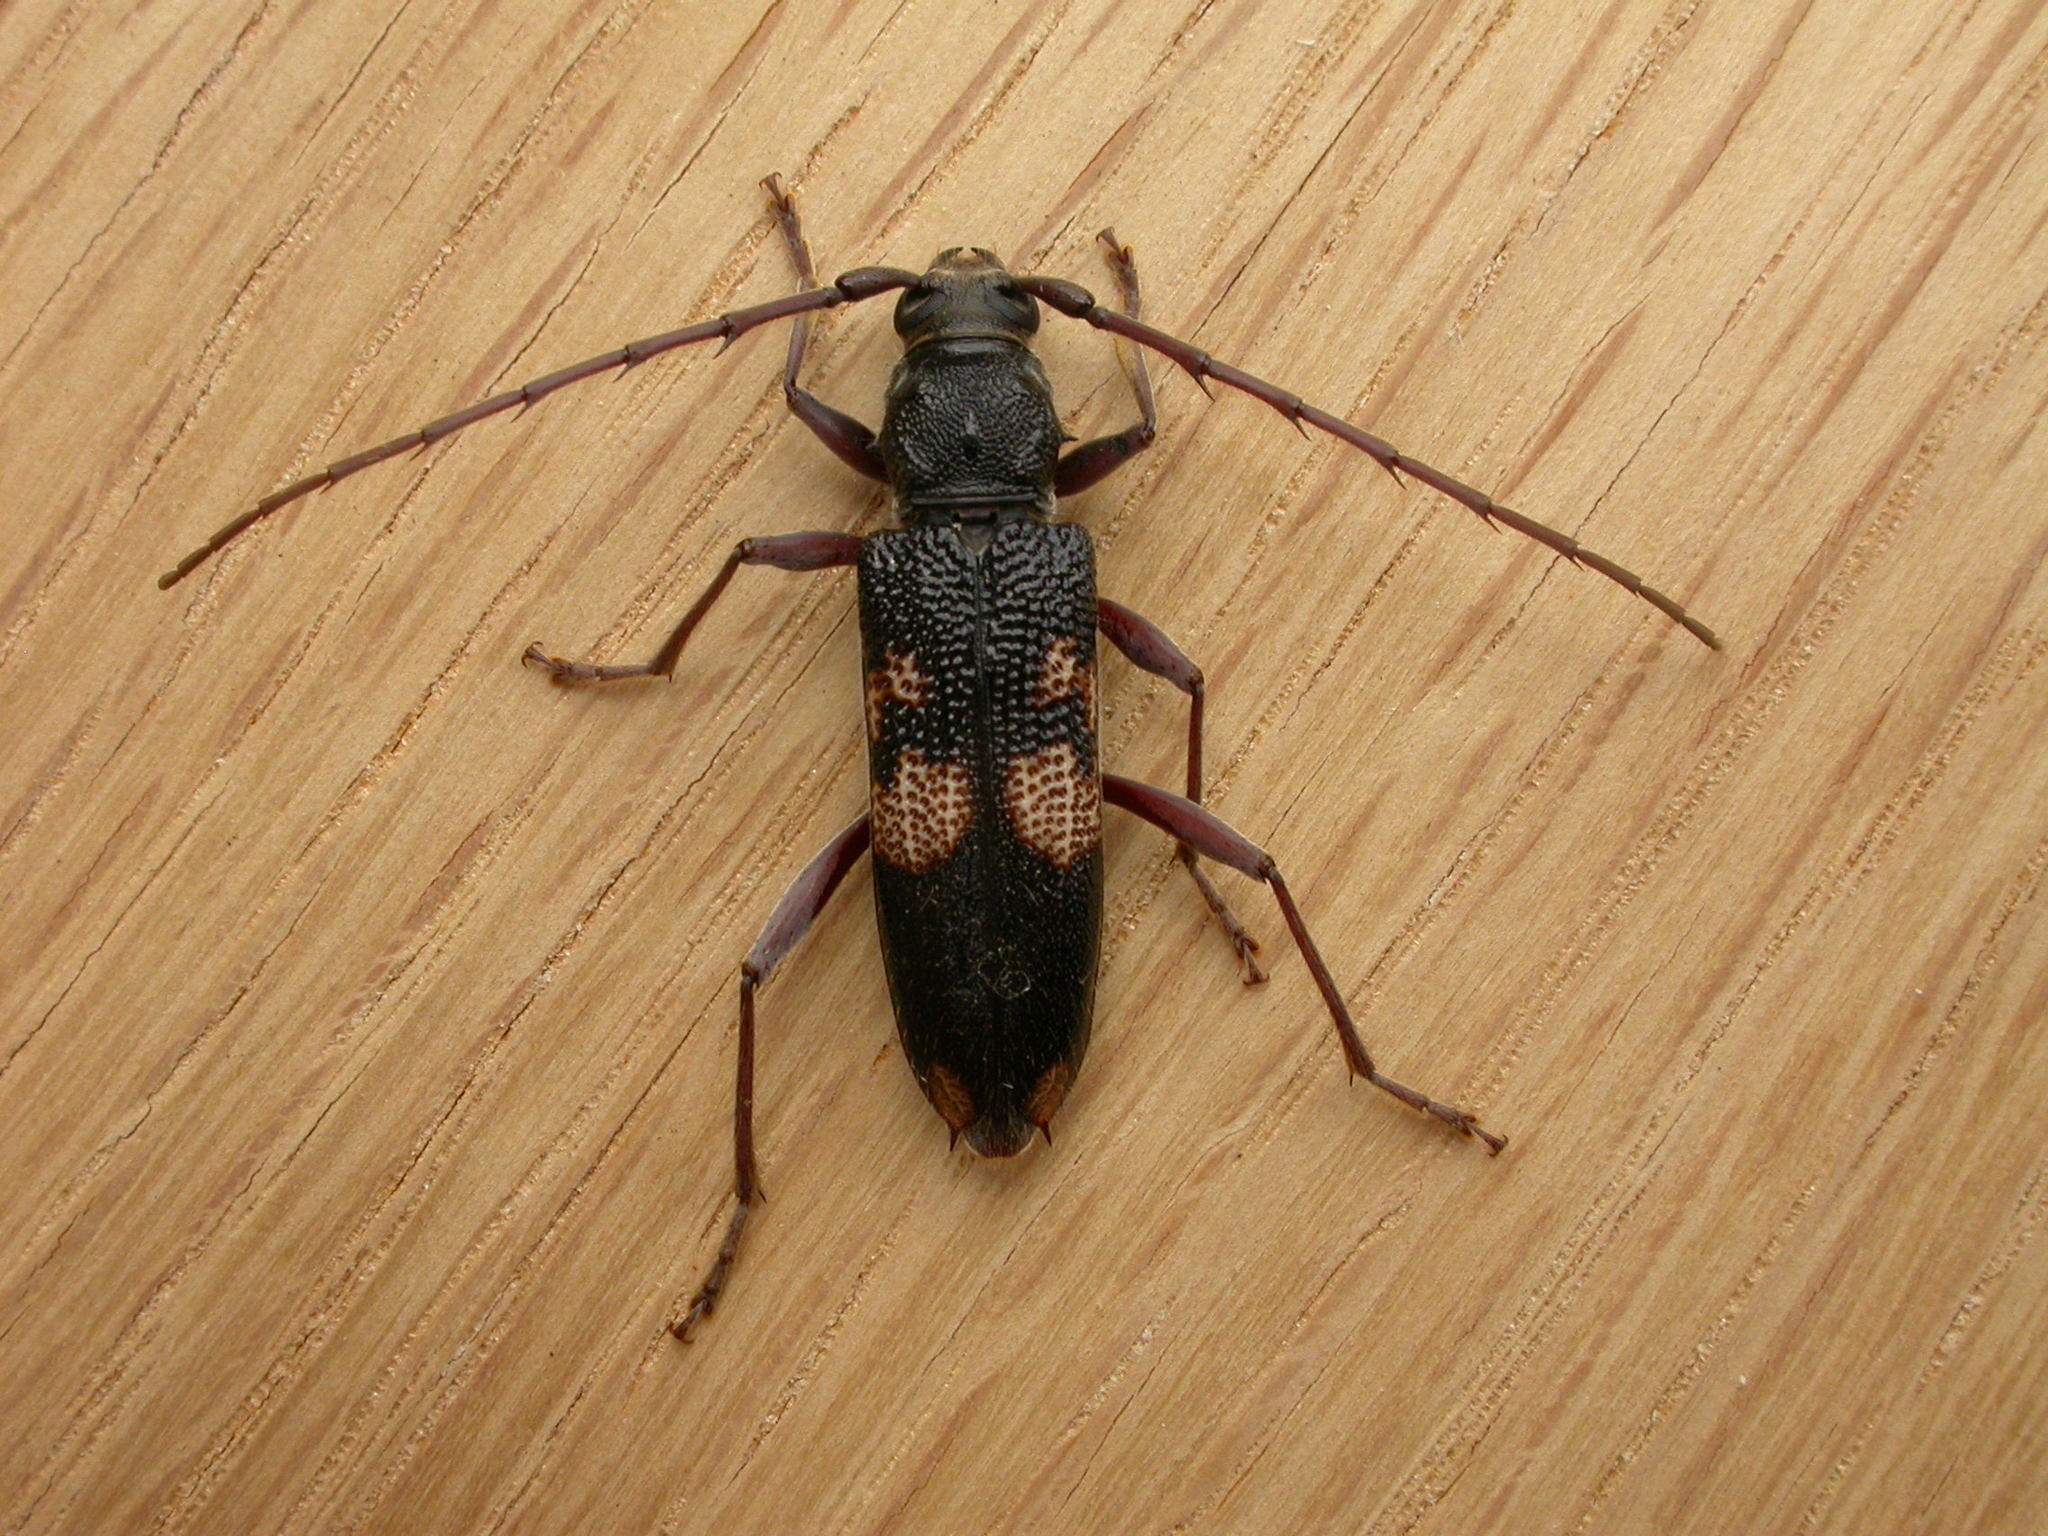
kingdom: Animalia
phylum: Arthropoda
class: Insecta
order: Coleoptera
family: Cerambycidae
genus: Phoracantha
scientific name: Phoracantha punctata
